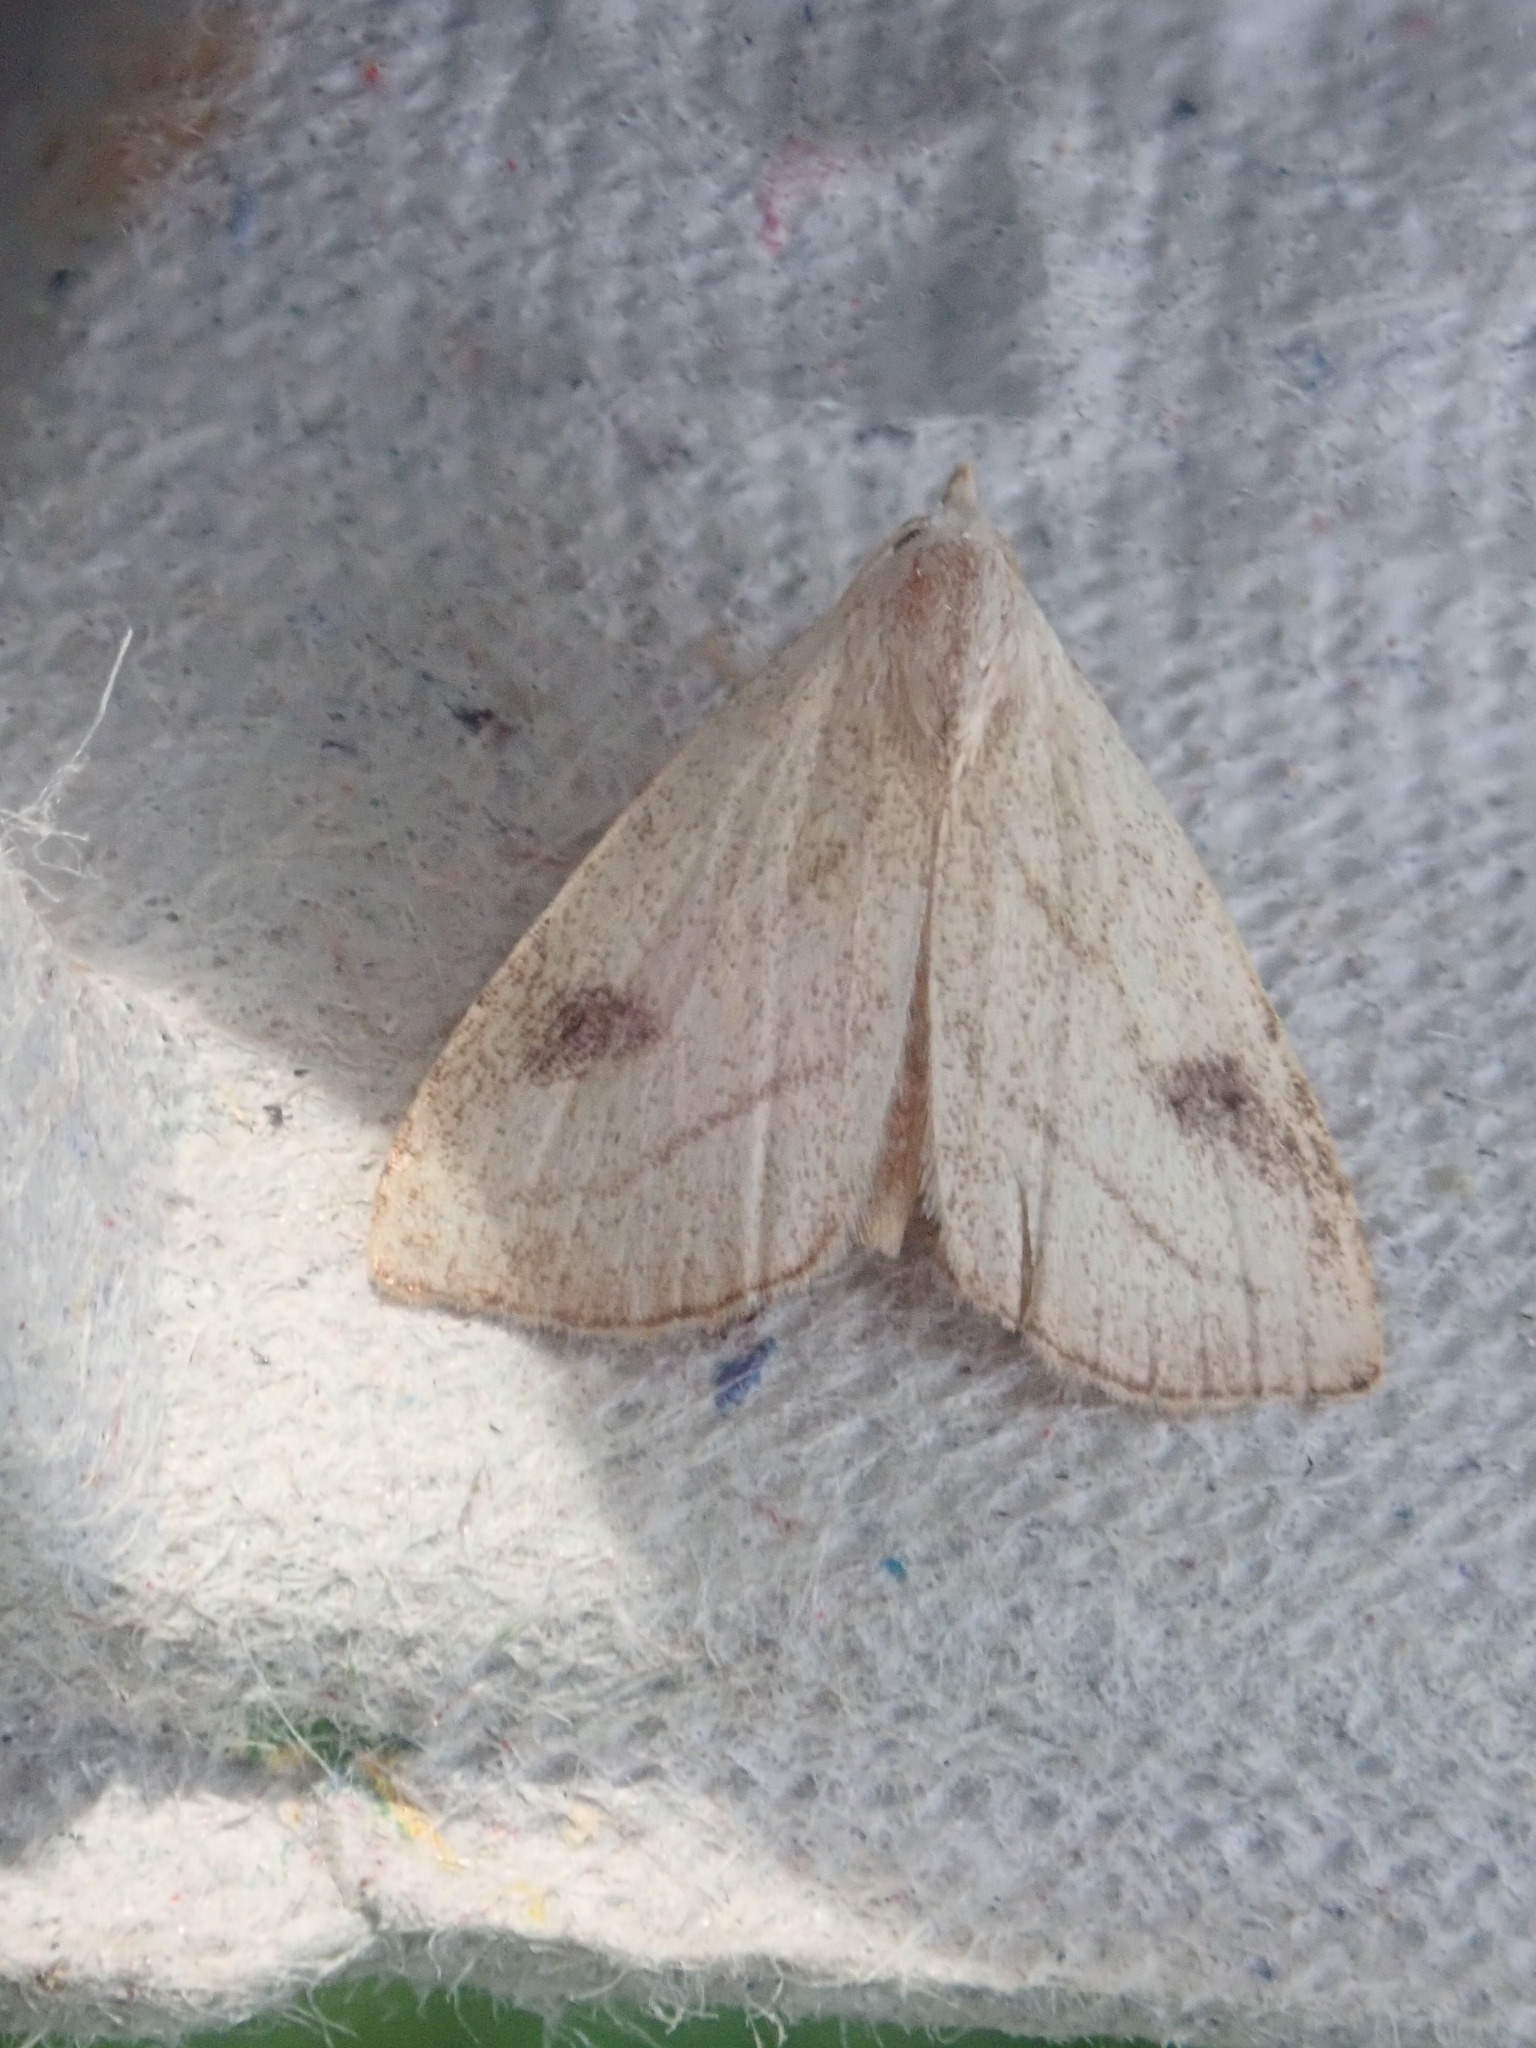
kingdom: Animalia
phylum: Arthropoda
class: Insecta
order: Lepidoptera
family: Erebidae
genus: Rivula
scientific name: Rivula propinqualis
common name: Spotted grass moth
